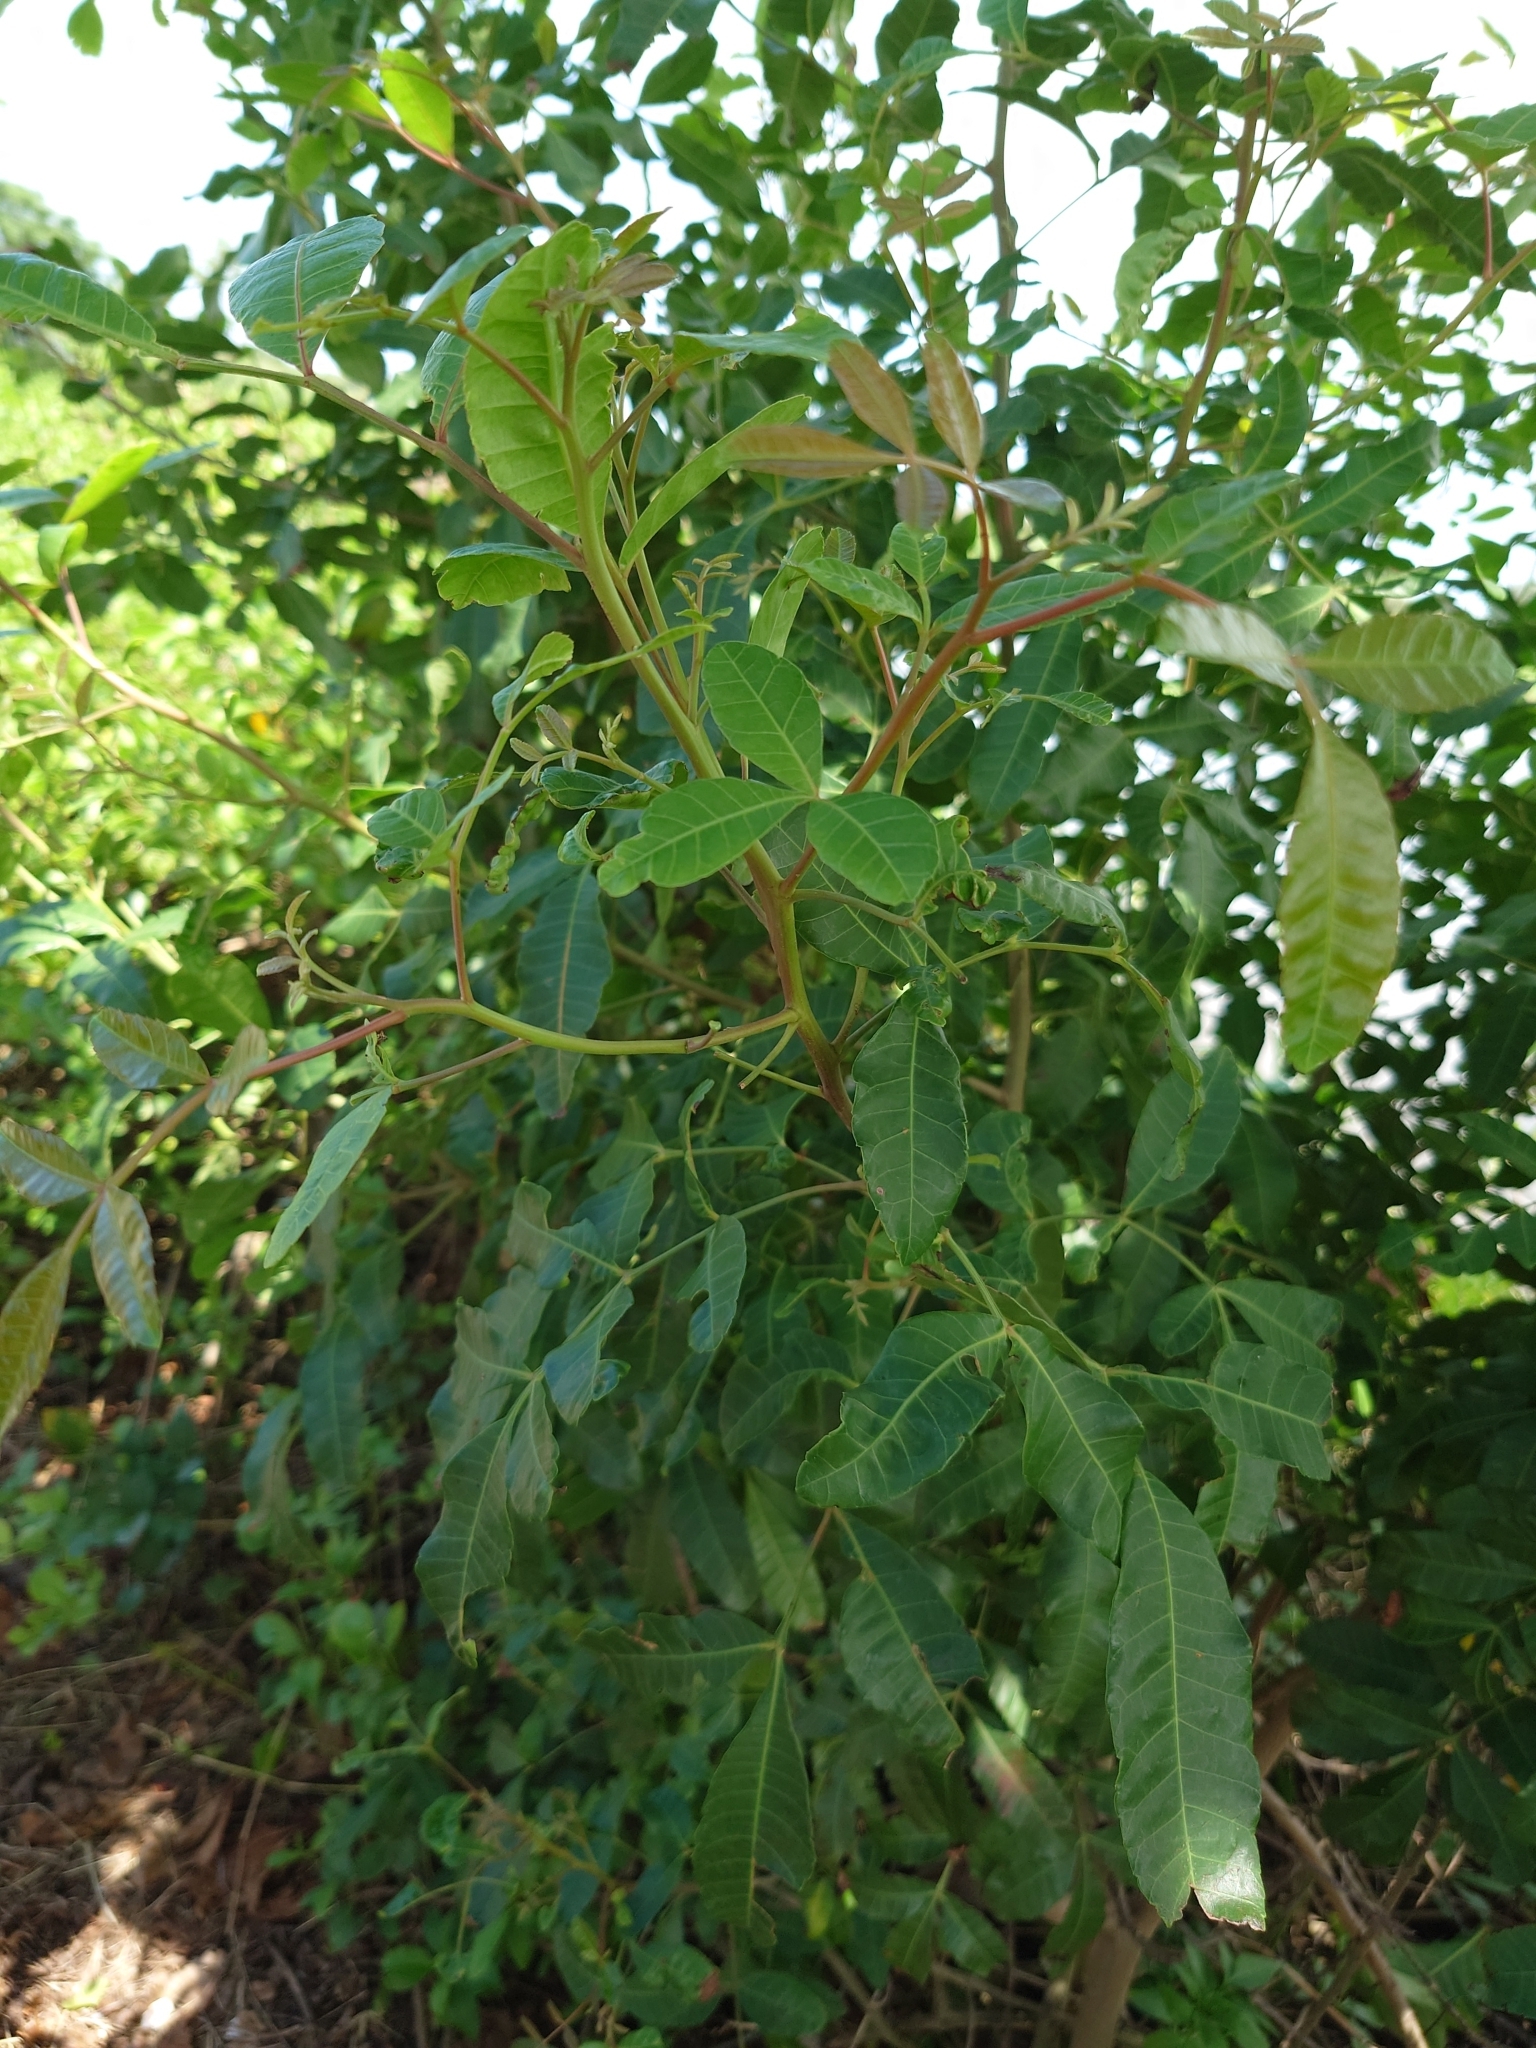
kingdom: Plantae
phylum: Tracheophyta
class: Magnoliopsida
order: Sapindales
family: Anacardiaceae
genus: Schinus
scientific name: Schinus terebinthifolia
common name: Brazilian peppertree
